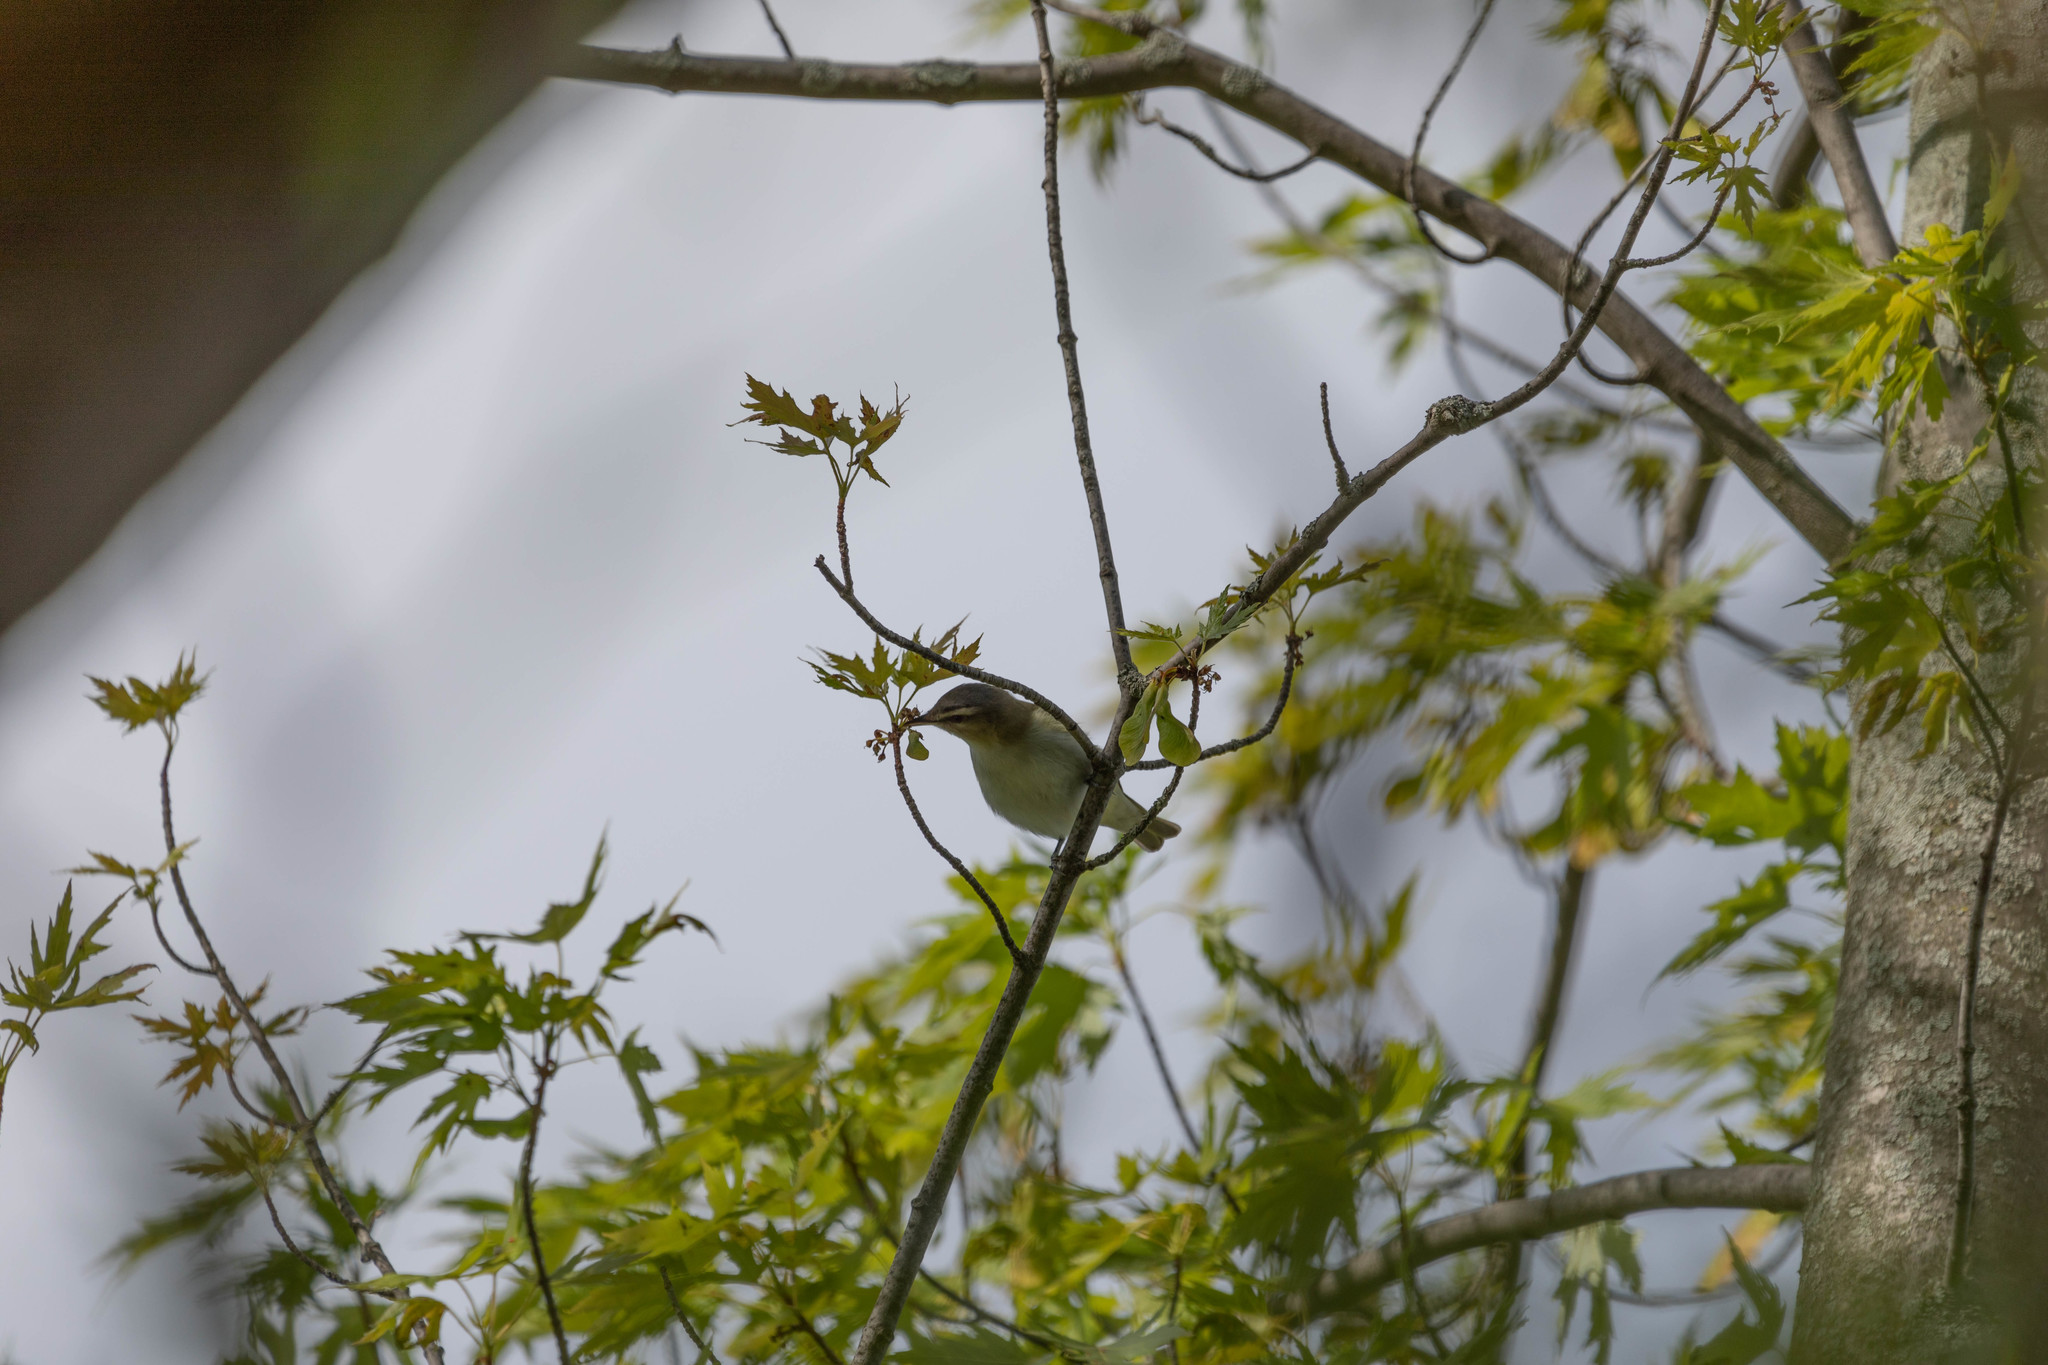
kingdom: Animalia
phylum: Chordata
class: Aves
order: Passeriformes
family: Vireonidae
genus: Vireo
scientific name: Vireo olivaceus
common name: Red-eyed vireo
